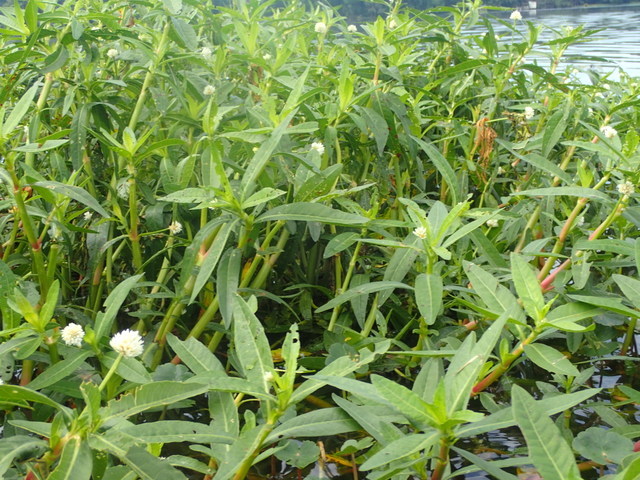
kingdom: Plantae
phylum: Tracheophyta
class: Magnoliopsida
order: Caryophyllales
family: Amaranthaceae
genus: Alternanthera
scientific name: Alternanthera philoxeroides
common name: Alligatorweed
